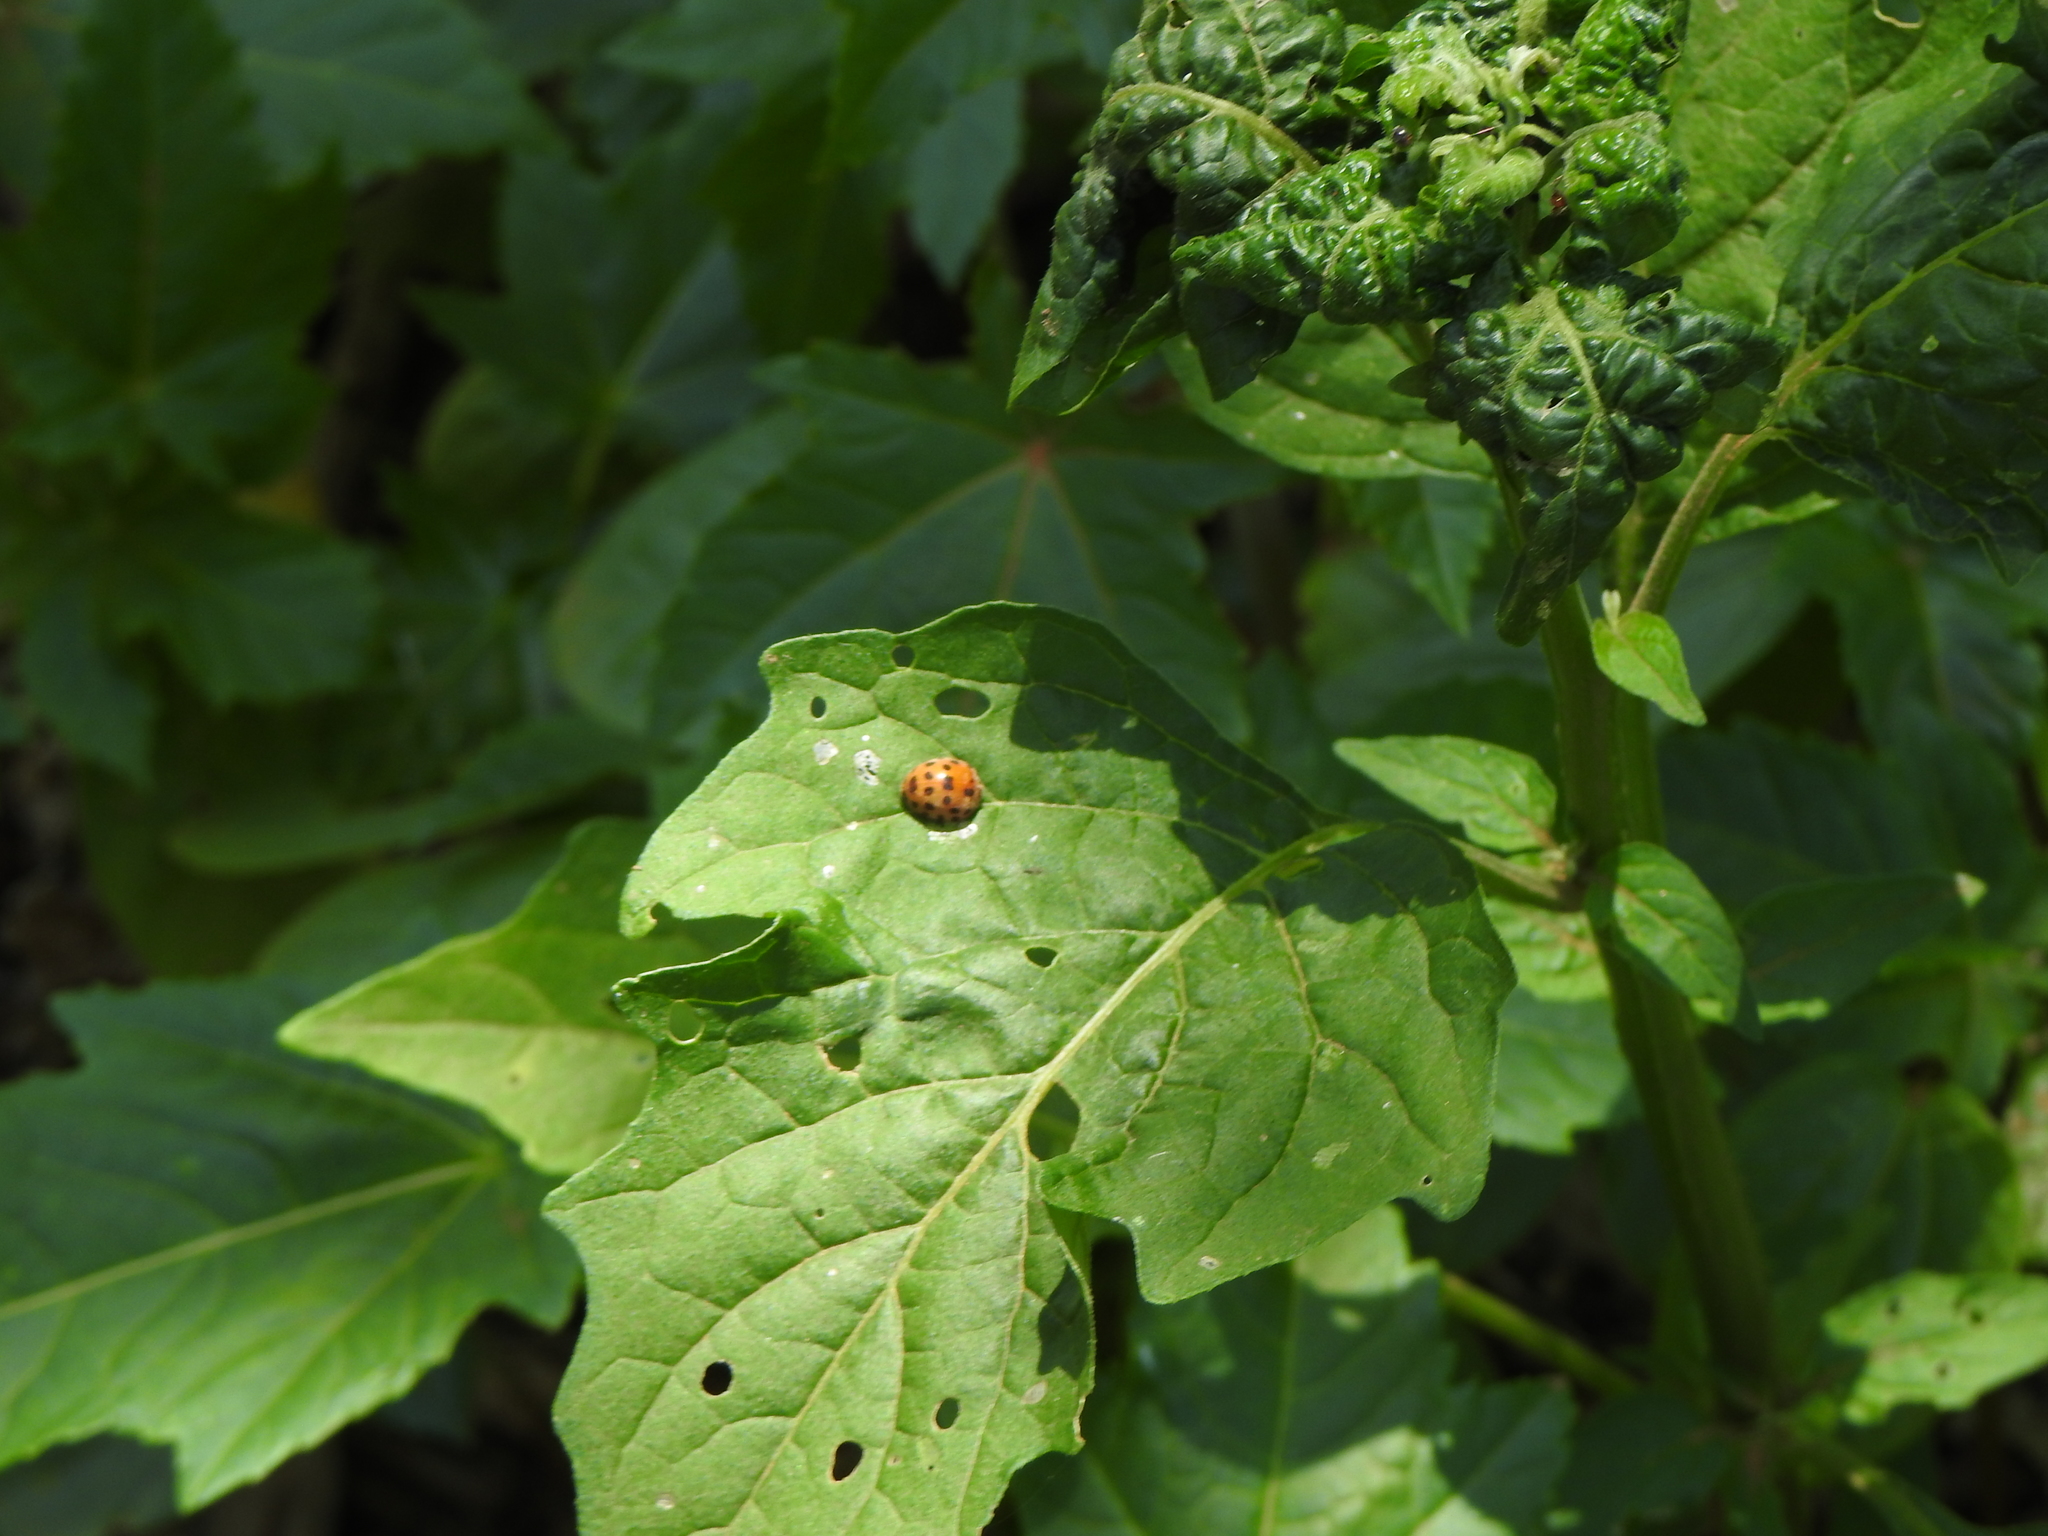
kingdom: Animalia
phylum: Arthropoda
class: Insecta
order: Coleoptera
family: Coccinellidae
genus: Henosepilachna
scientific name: Henosepilachna vigintioctopunctata
